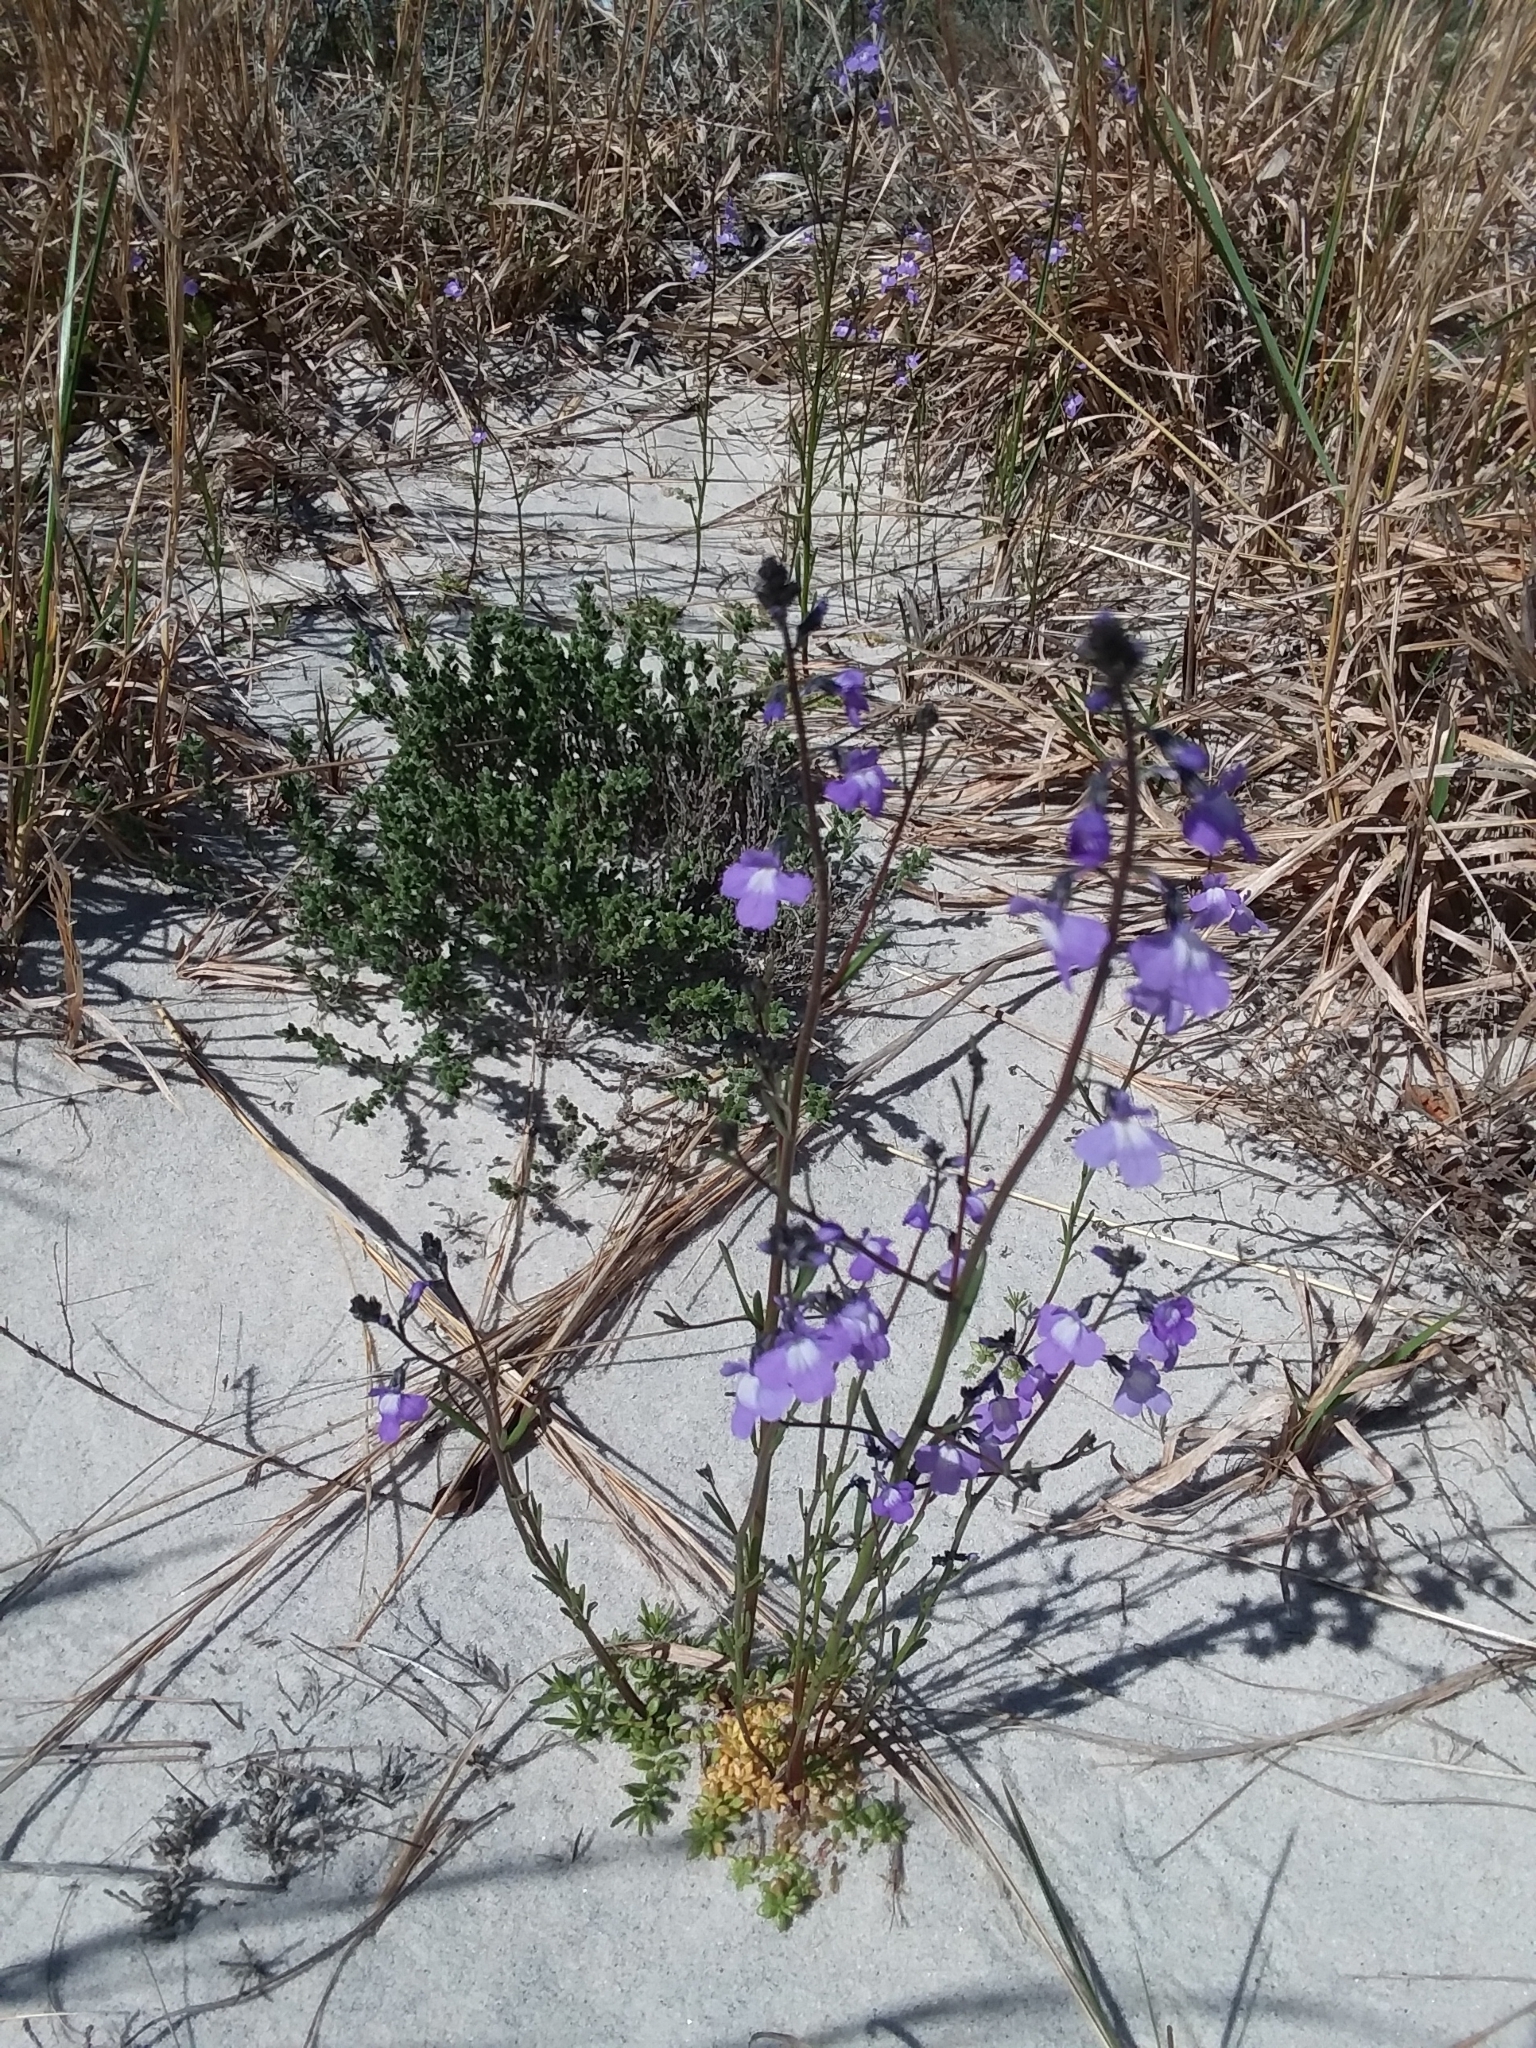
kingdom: Plantae
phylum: Tracheophyta
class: Magnoliopsida
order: Lamiales
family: Plantaginaceae
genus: Nuttallanthus
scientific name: Nuttallanthus canadensis
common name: Blue toadflax
